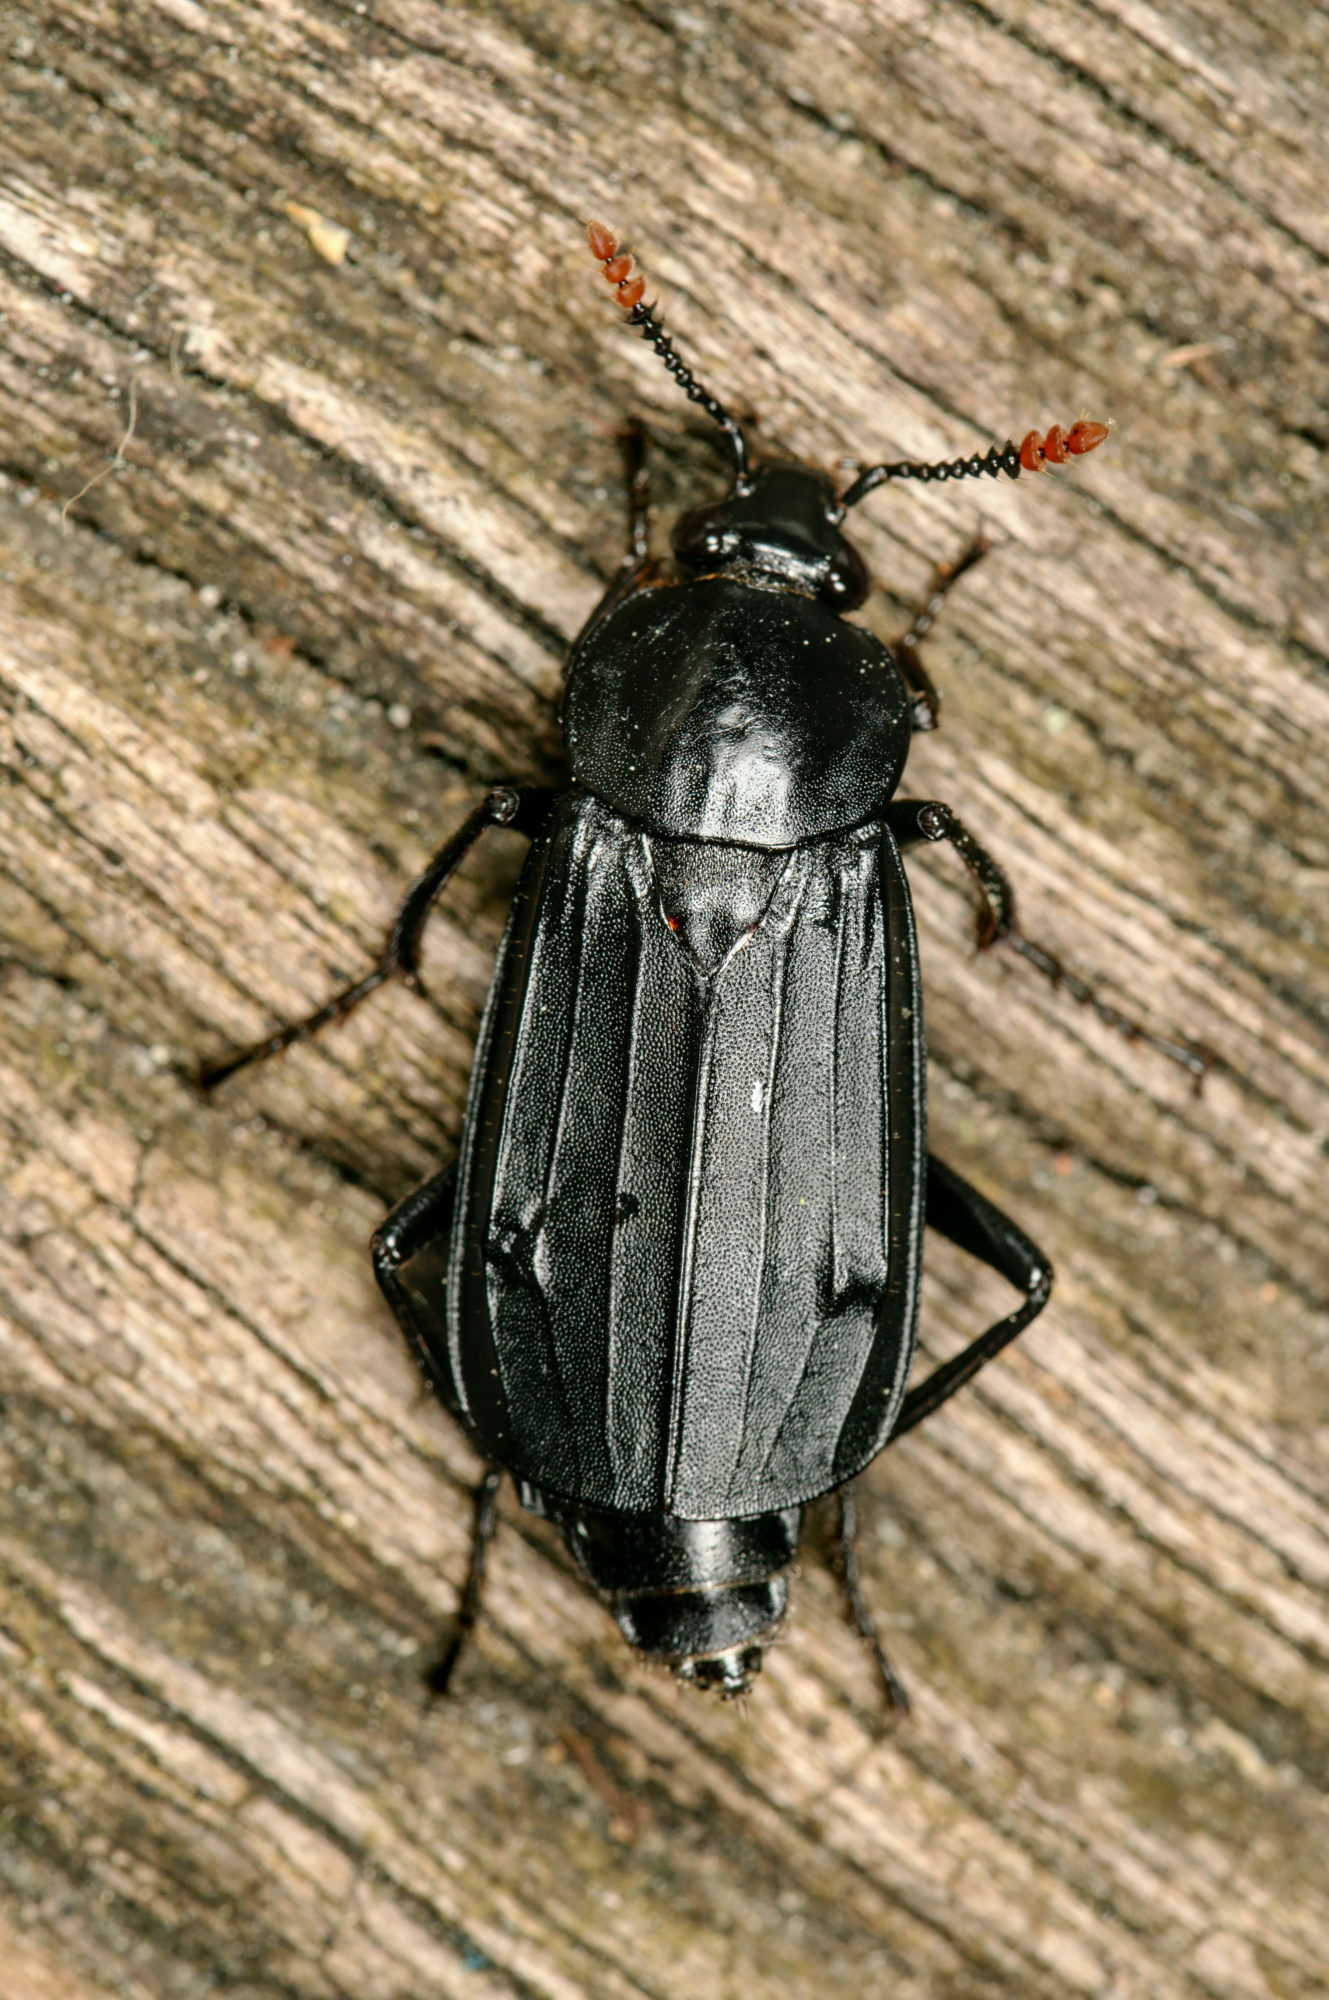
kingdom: Animalia
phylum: Arthropoda
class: Insecta
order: Coleoptera
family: Staphylinidae
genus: Necrodes
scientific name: Necrodes littoralis
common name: Shore sexton beetle
